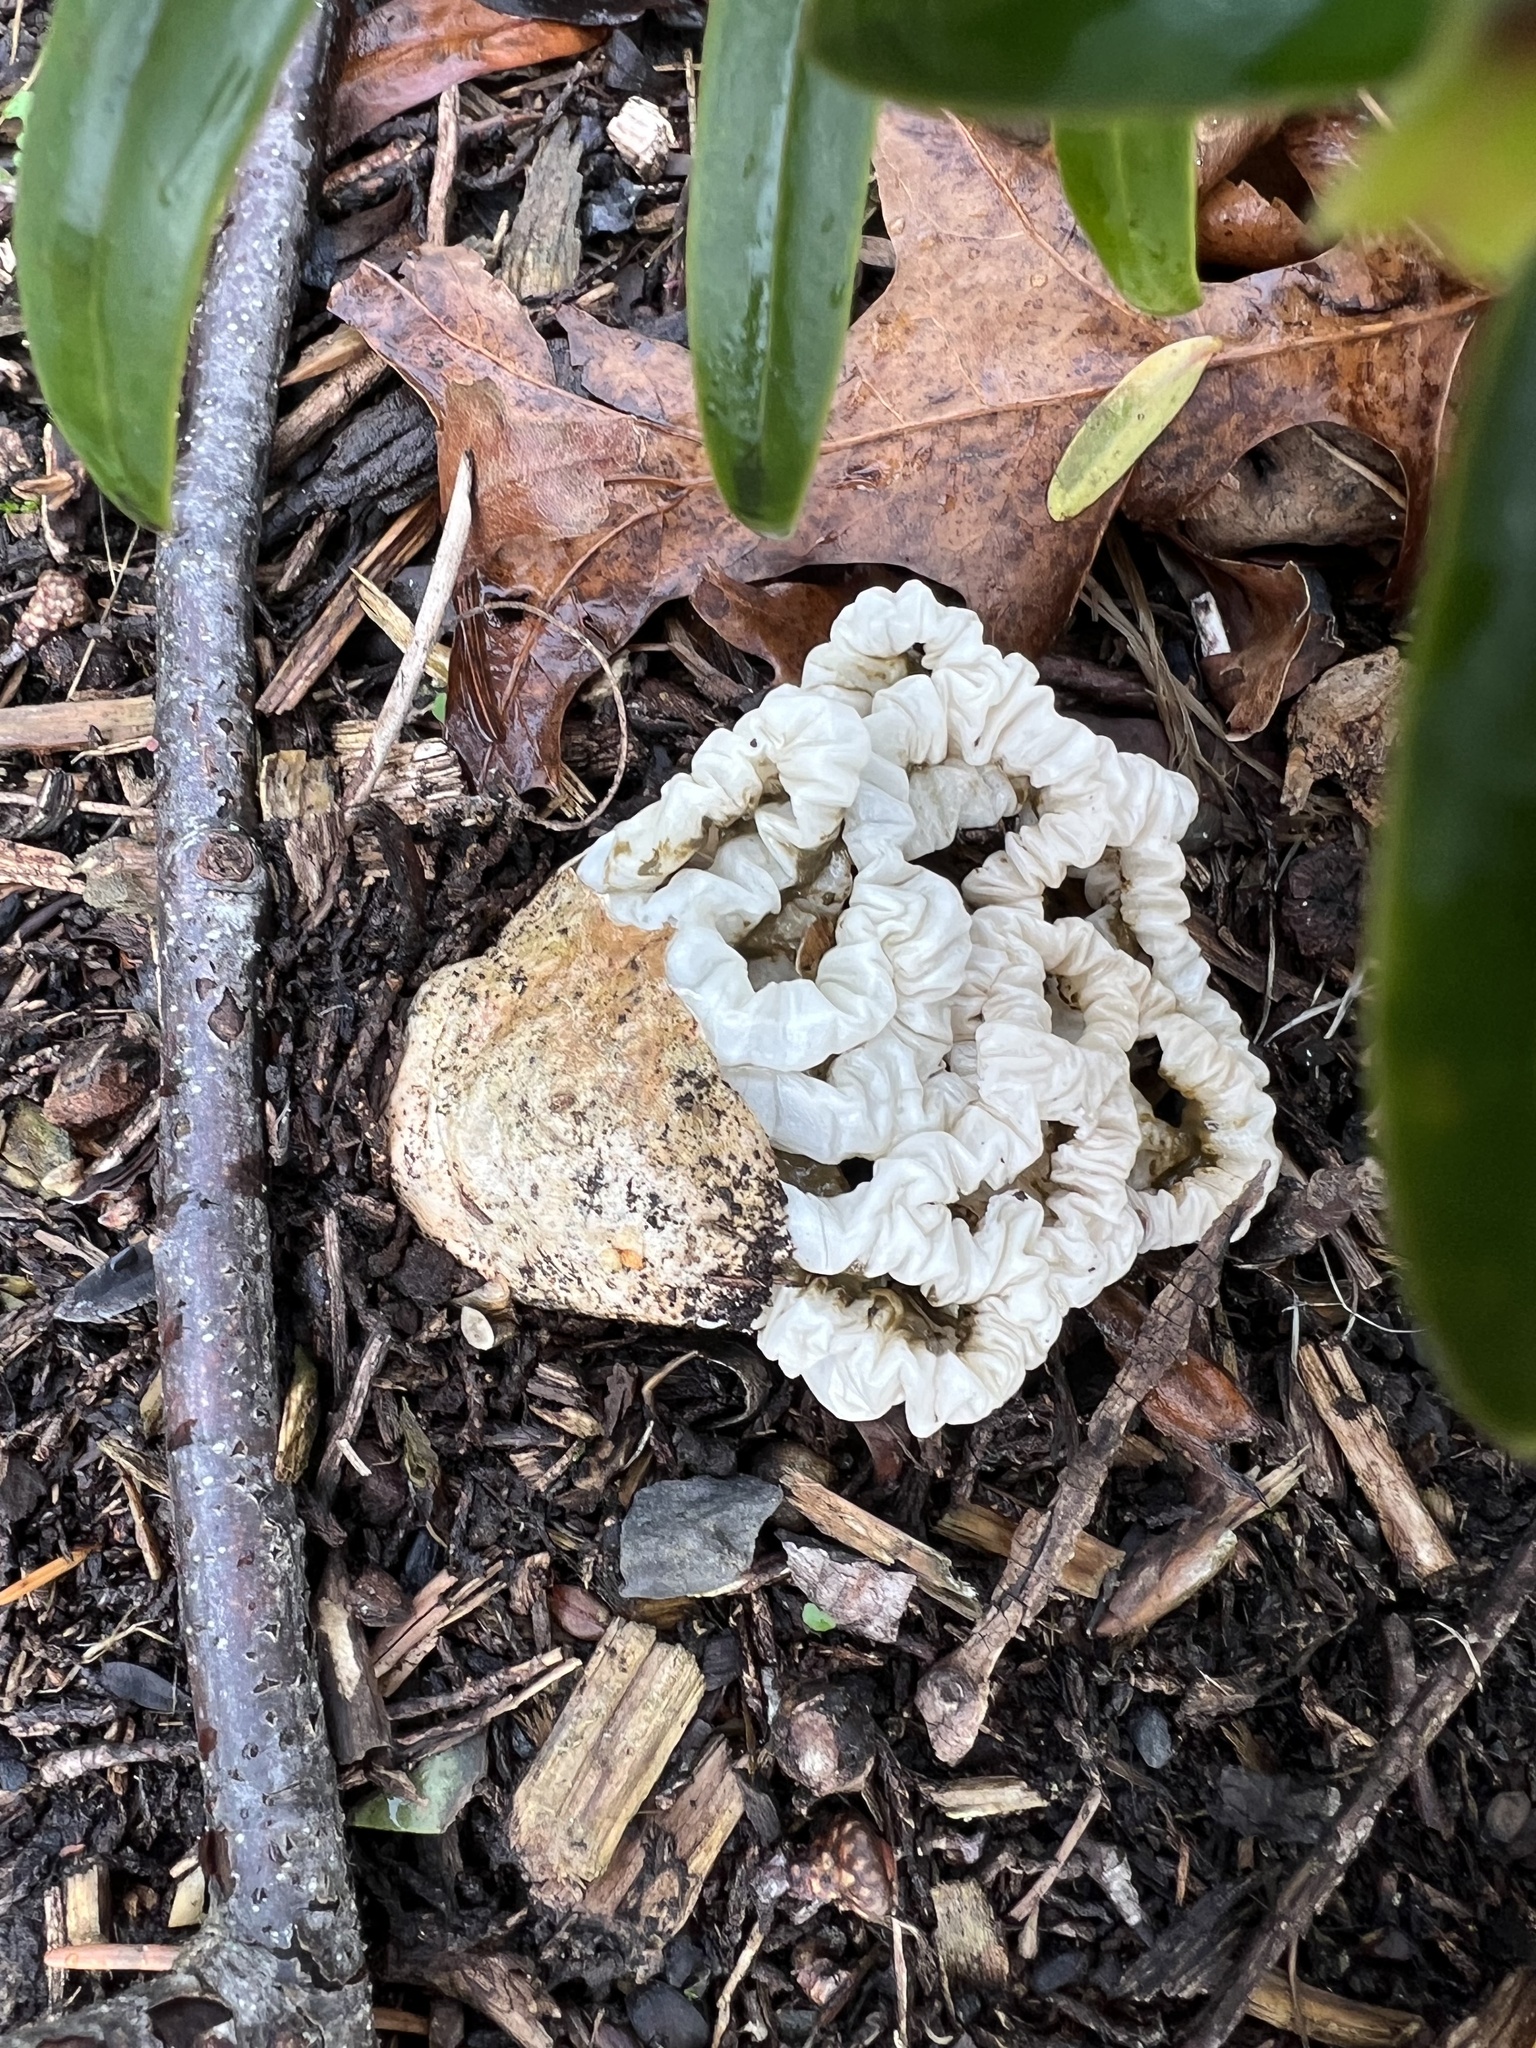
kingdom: Fungi
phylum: Basidiomycota
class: Agaricomycetes
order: Phallales
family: Phallaceae
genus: Ileodictyon
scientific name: Ileodictyon cibarium
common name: Basket fungus
